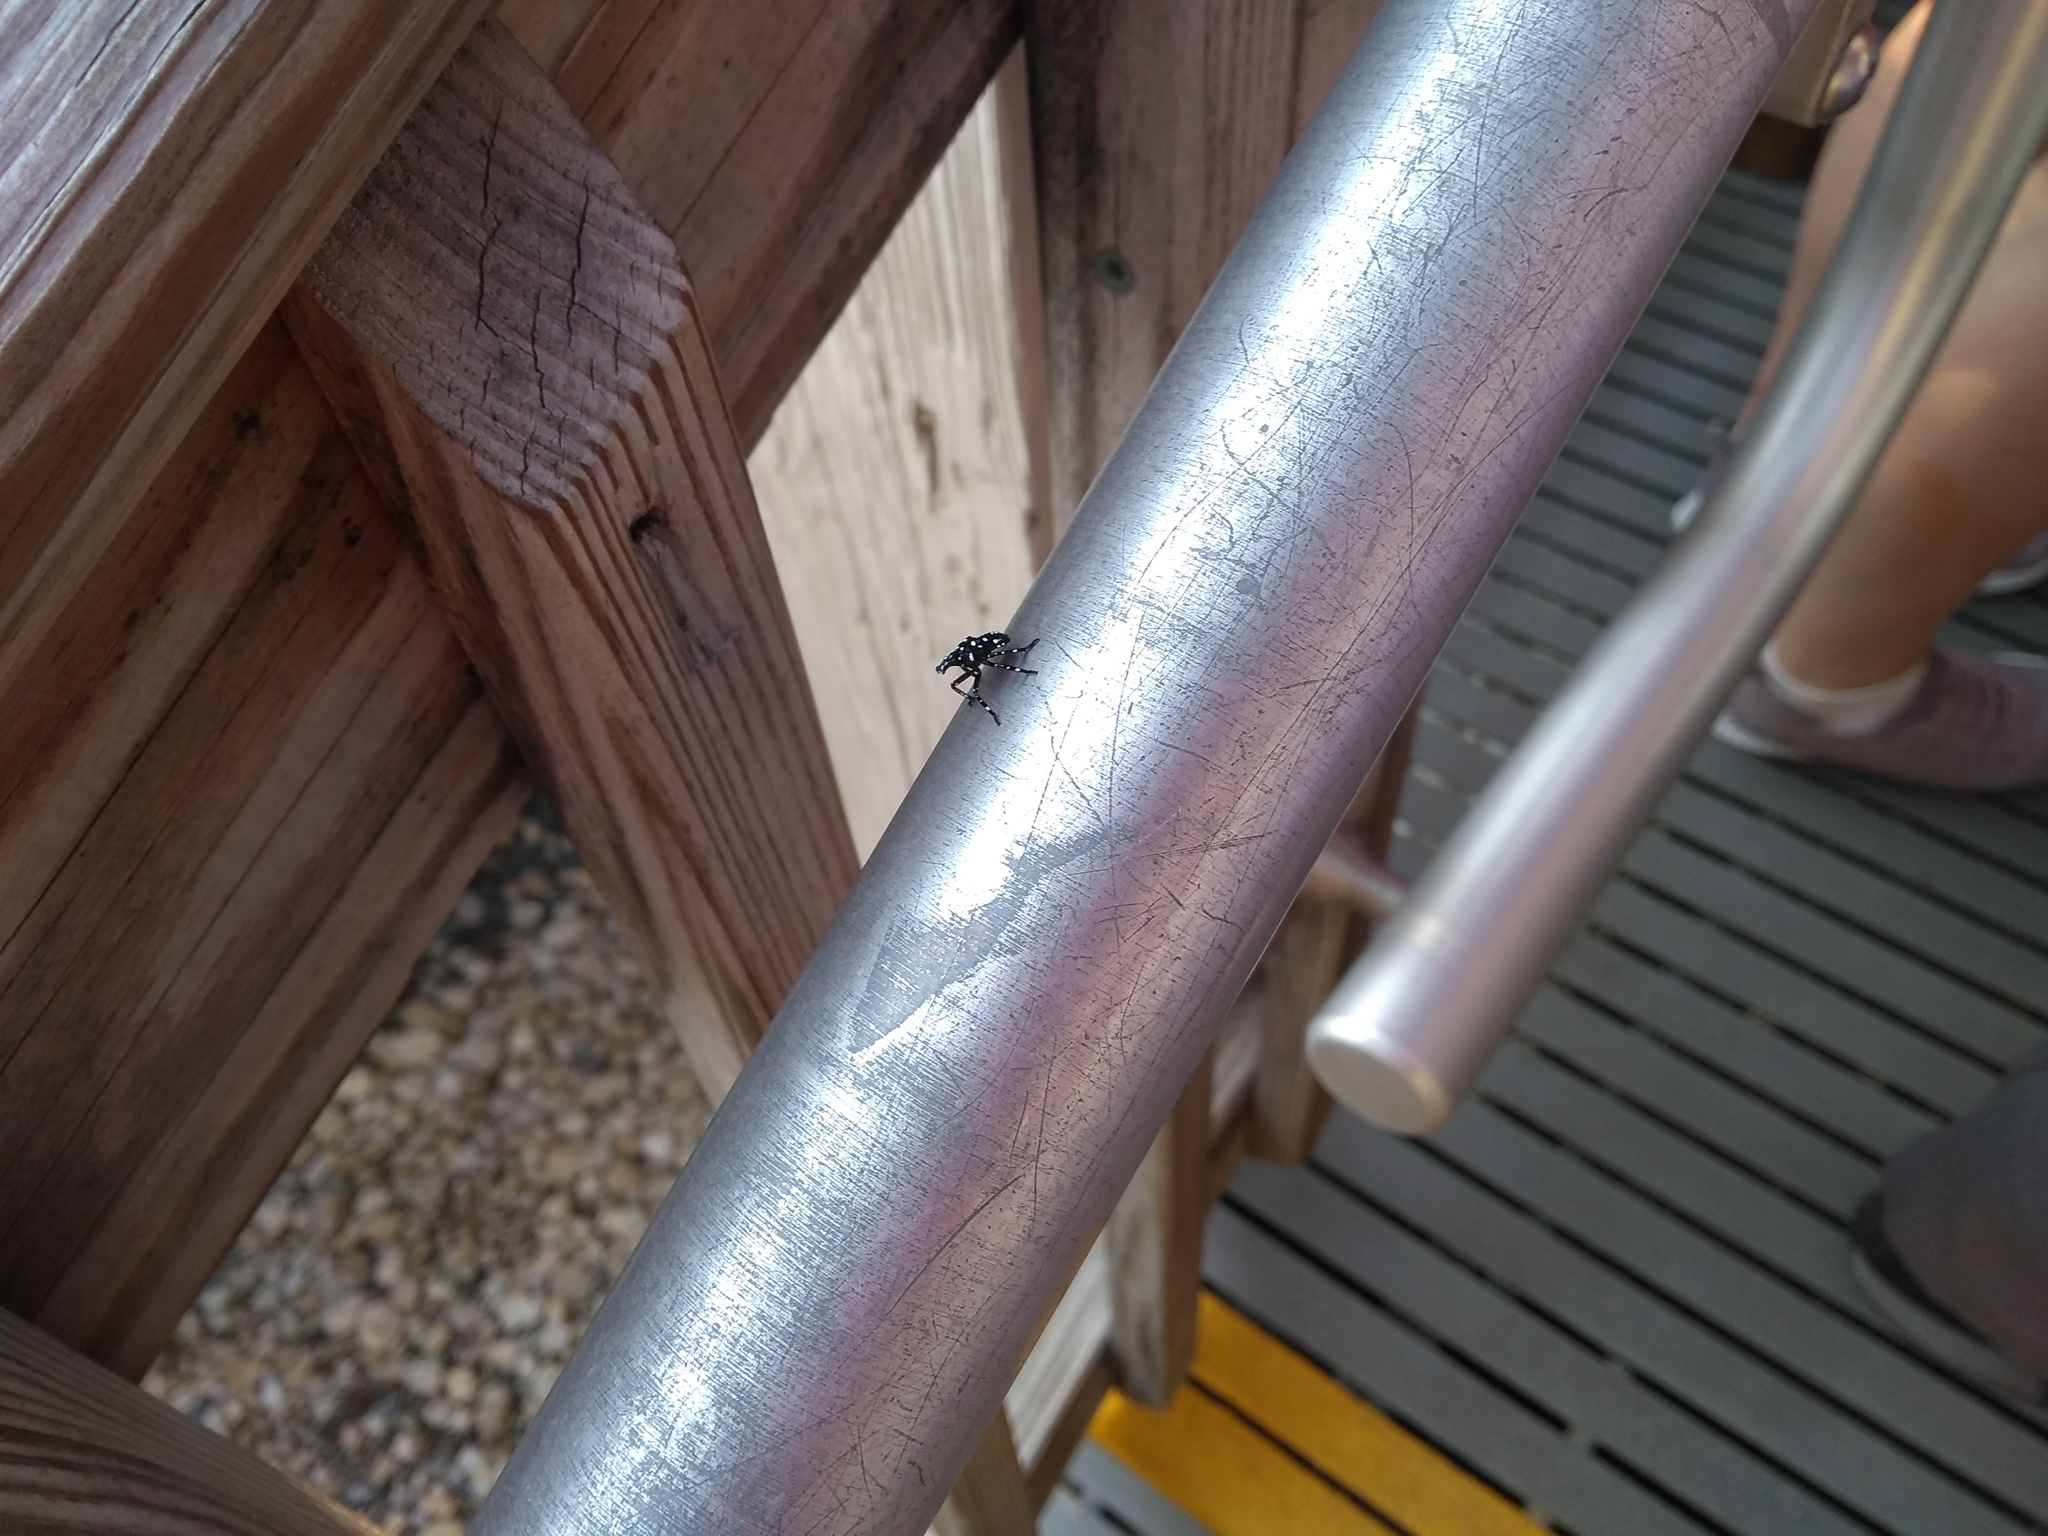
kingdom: Animalia
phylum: Arthropoda
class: Insecta
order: Hemiptera
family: Fulgoridae
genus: Lycorma
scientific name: Lycorma delicatula
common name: Spotted lanternfly
